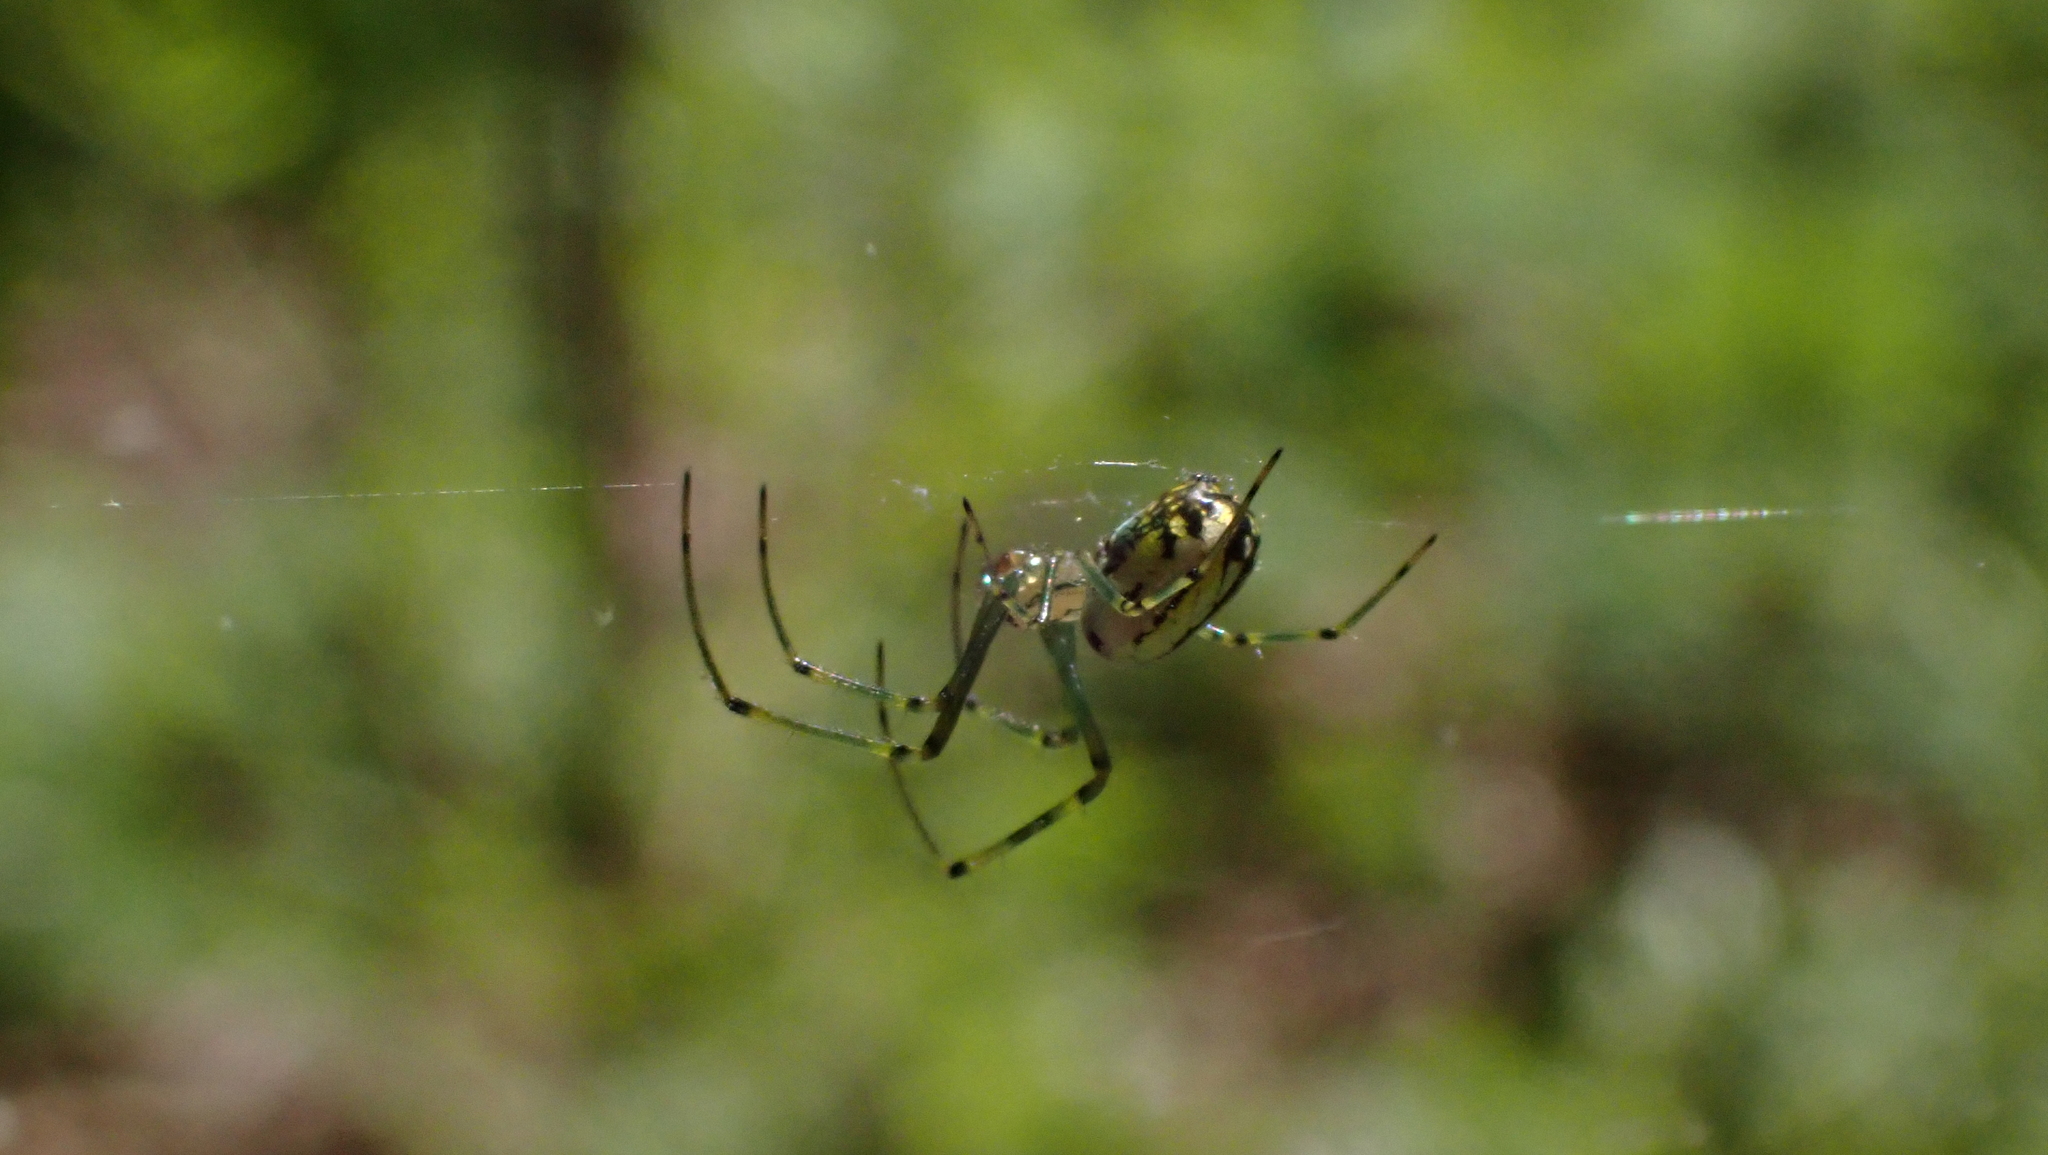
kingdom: Animalia
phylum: Arthropoda
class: Arachnida
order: Araneae
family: Tetragnathidae
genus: Leucauge
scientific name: Leucauge venusta
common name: Longjawed orb weavers
